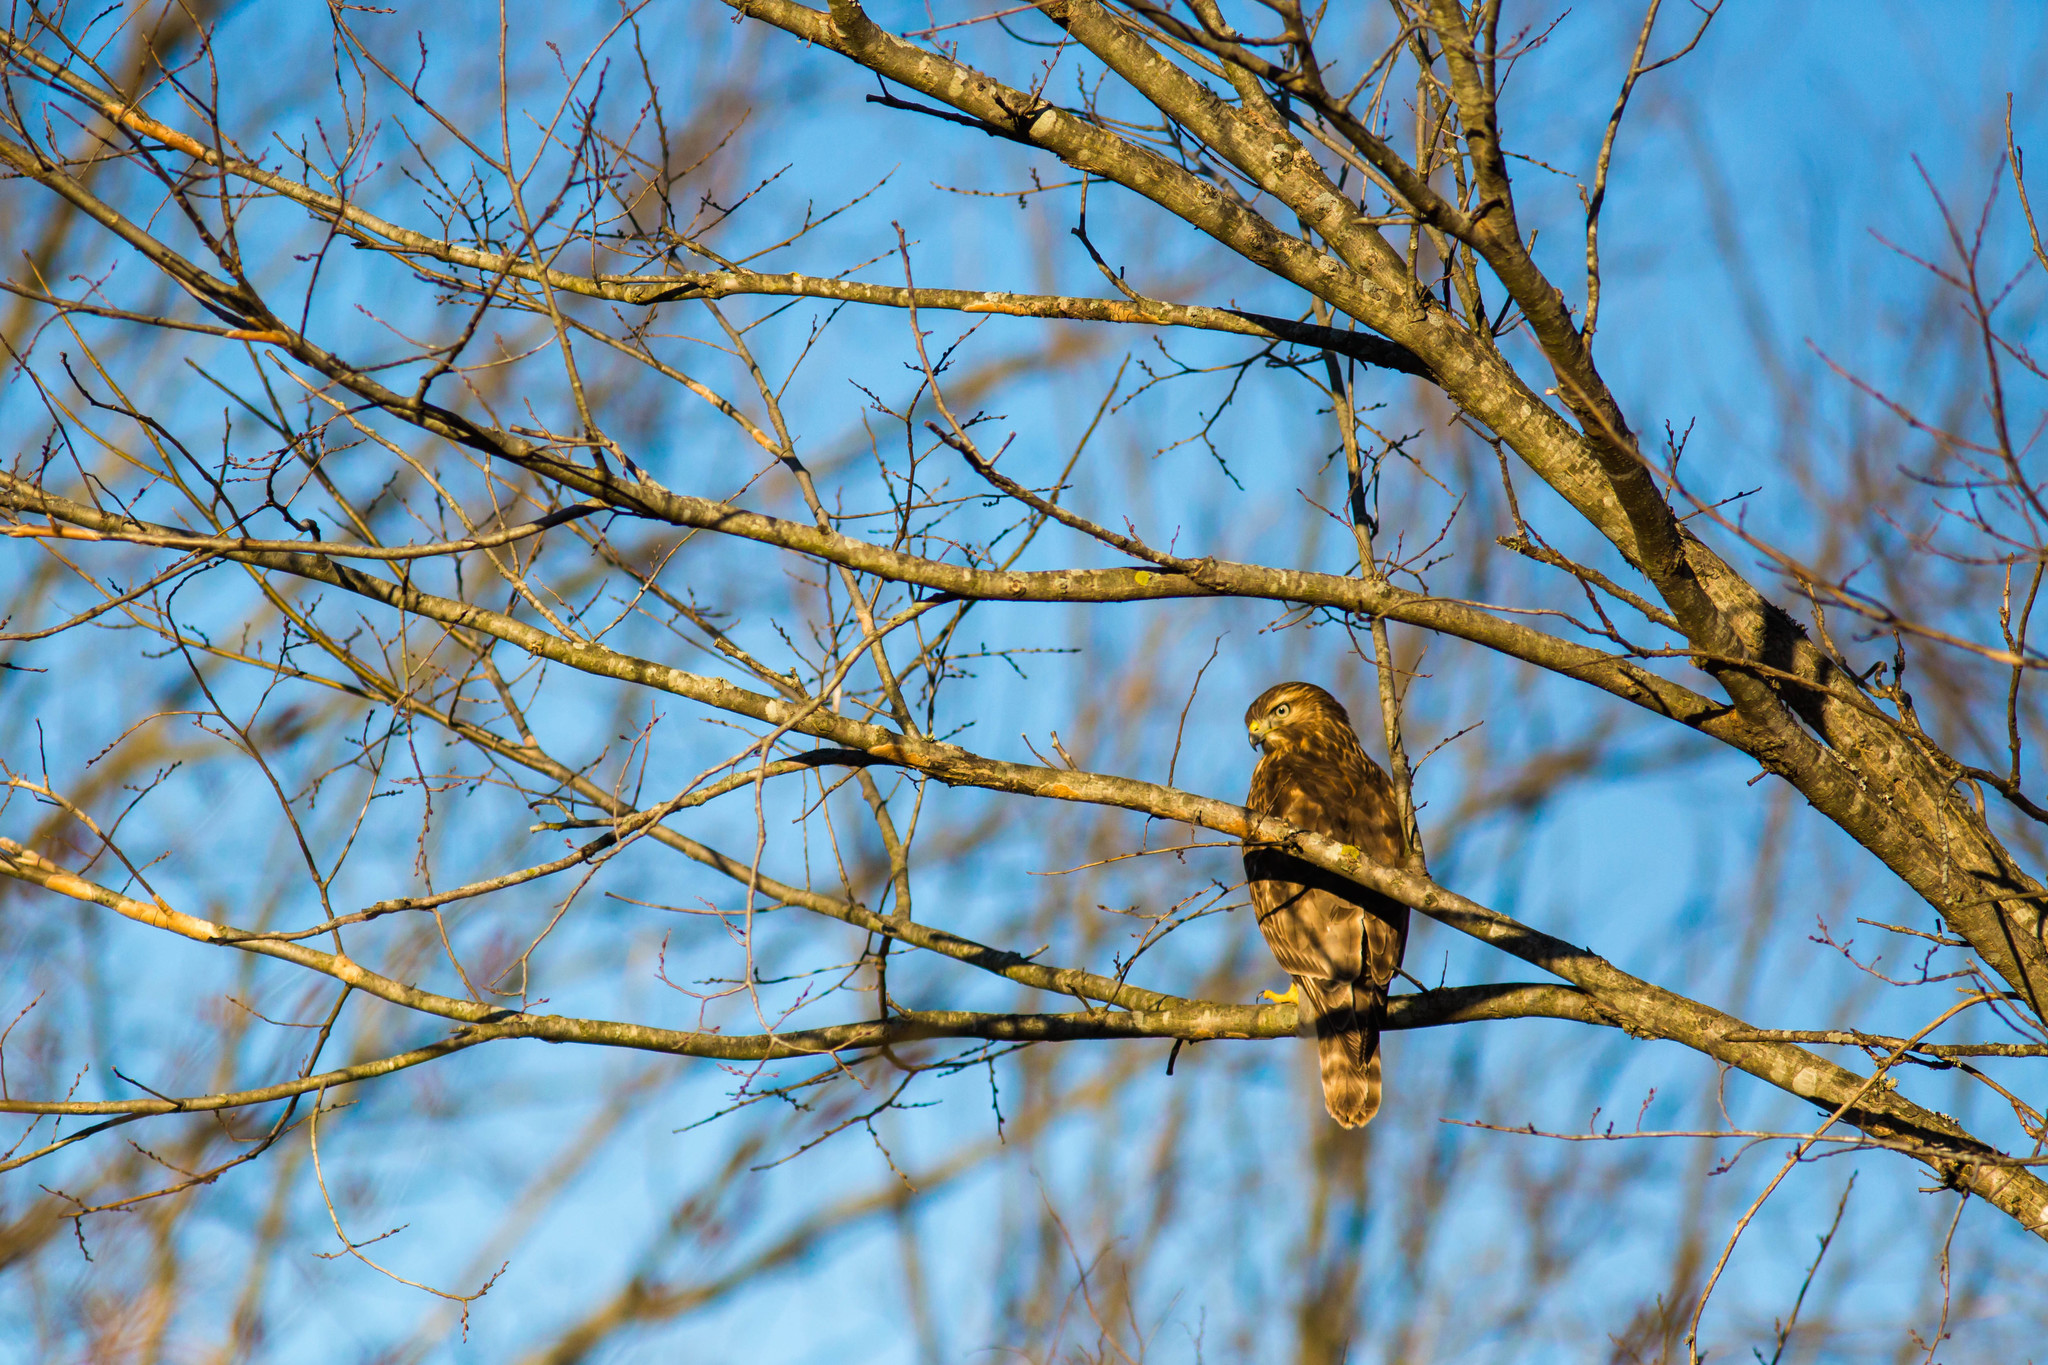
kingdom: Animalia
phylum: Chordata
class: Aves
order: Accipitriformes
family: Accipitridae
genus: Buteo
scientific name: Buteo lineatus
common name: Red-shouldered hawk
